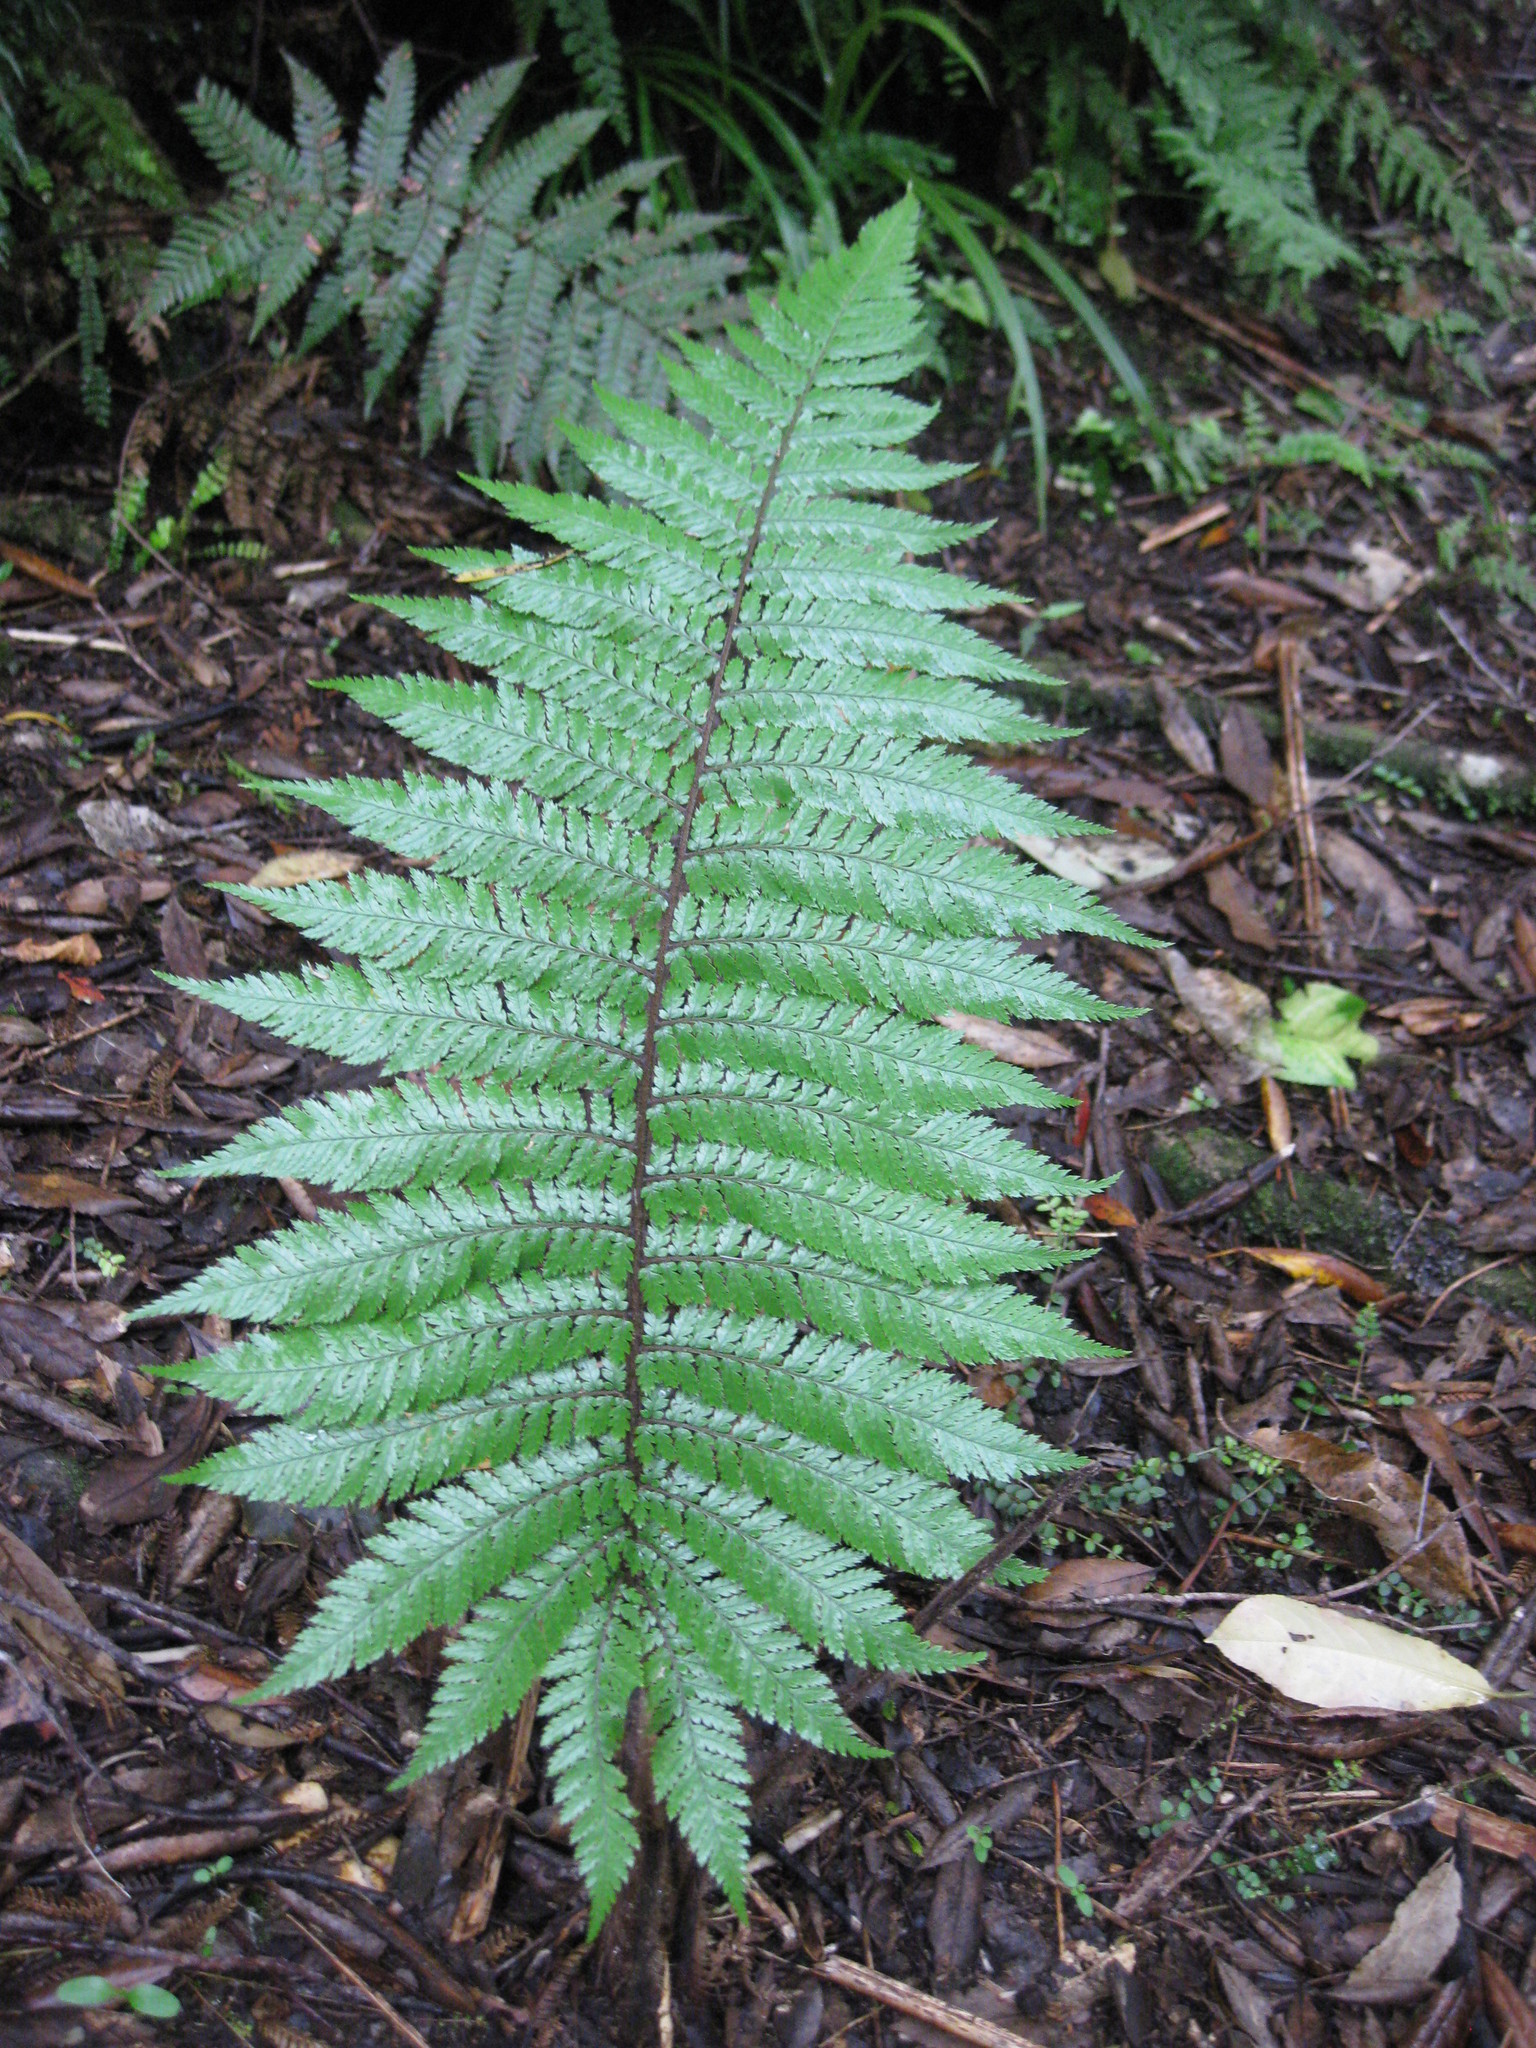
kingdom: Plantae
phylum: Tracheophyta
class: Polypodiopsida
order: Cyatheales
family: Dicksoniaceae
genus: Dicksonia
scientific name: Dicksonia squarrosa
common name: Hard treefern
